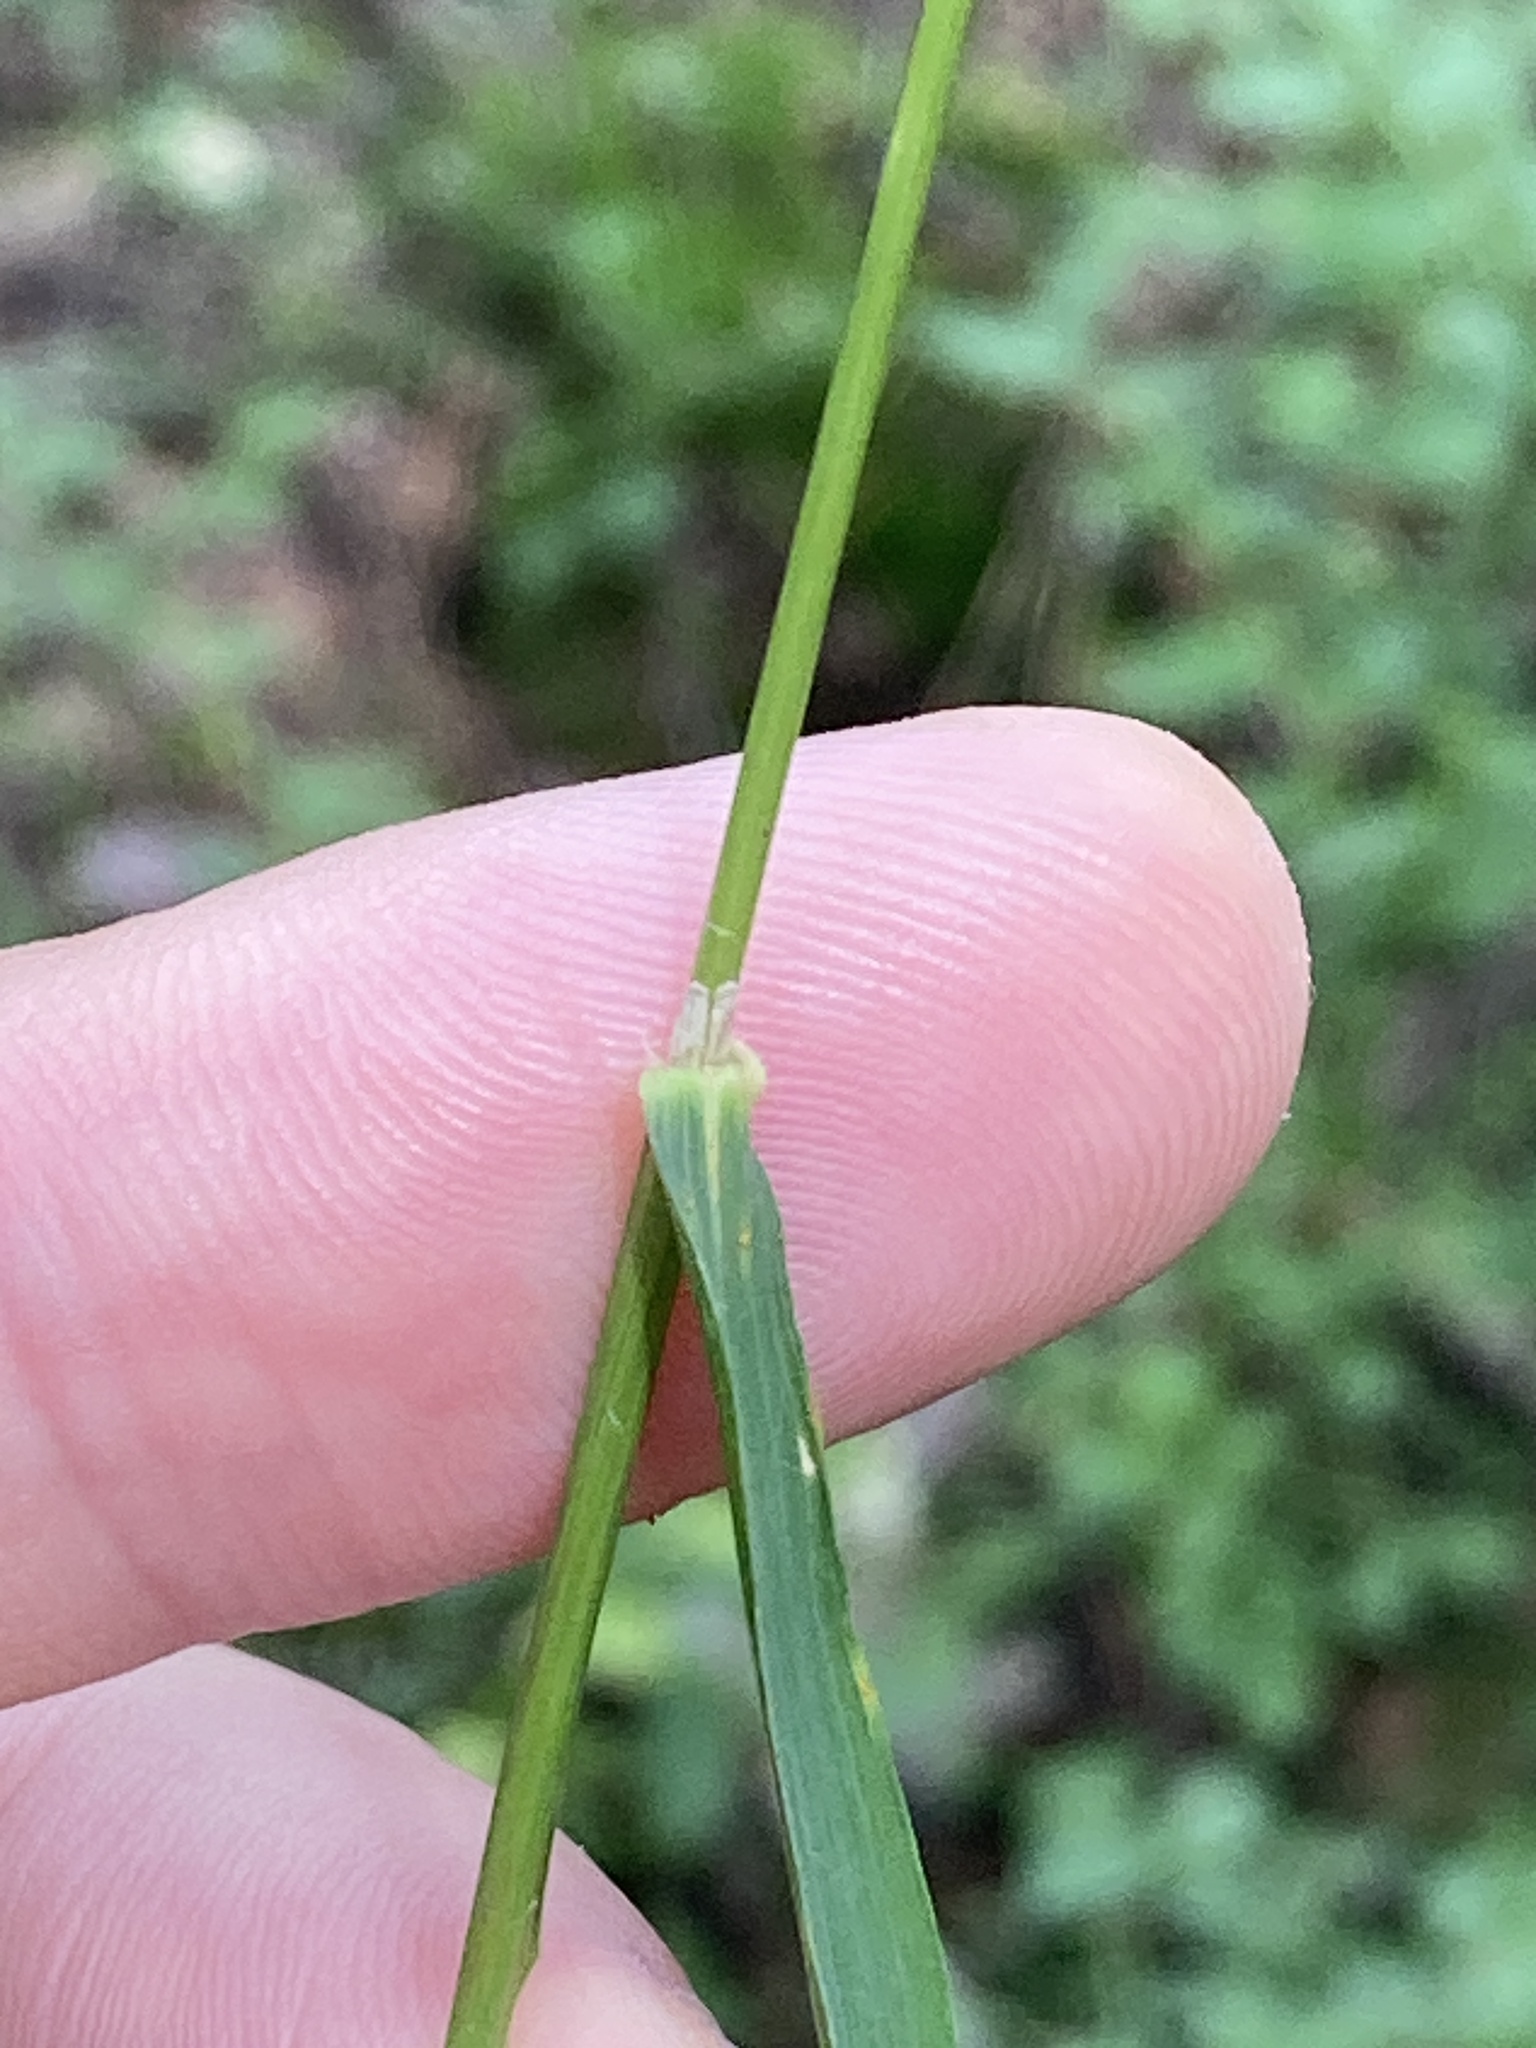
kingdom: Plantae
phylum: Tracheophyta
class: Liliopsida
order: Poales
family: Poaceae
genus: Calamagrostis
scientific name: Calamagrostis arundinacea
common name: Metskastik
